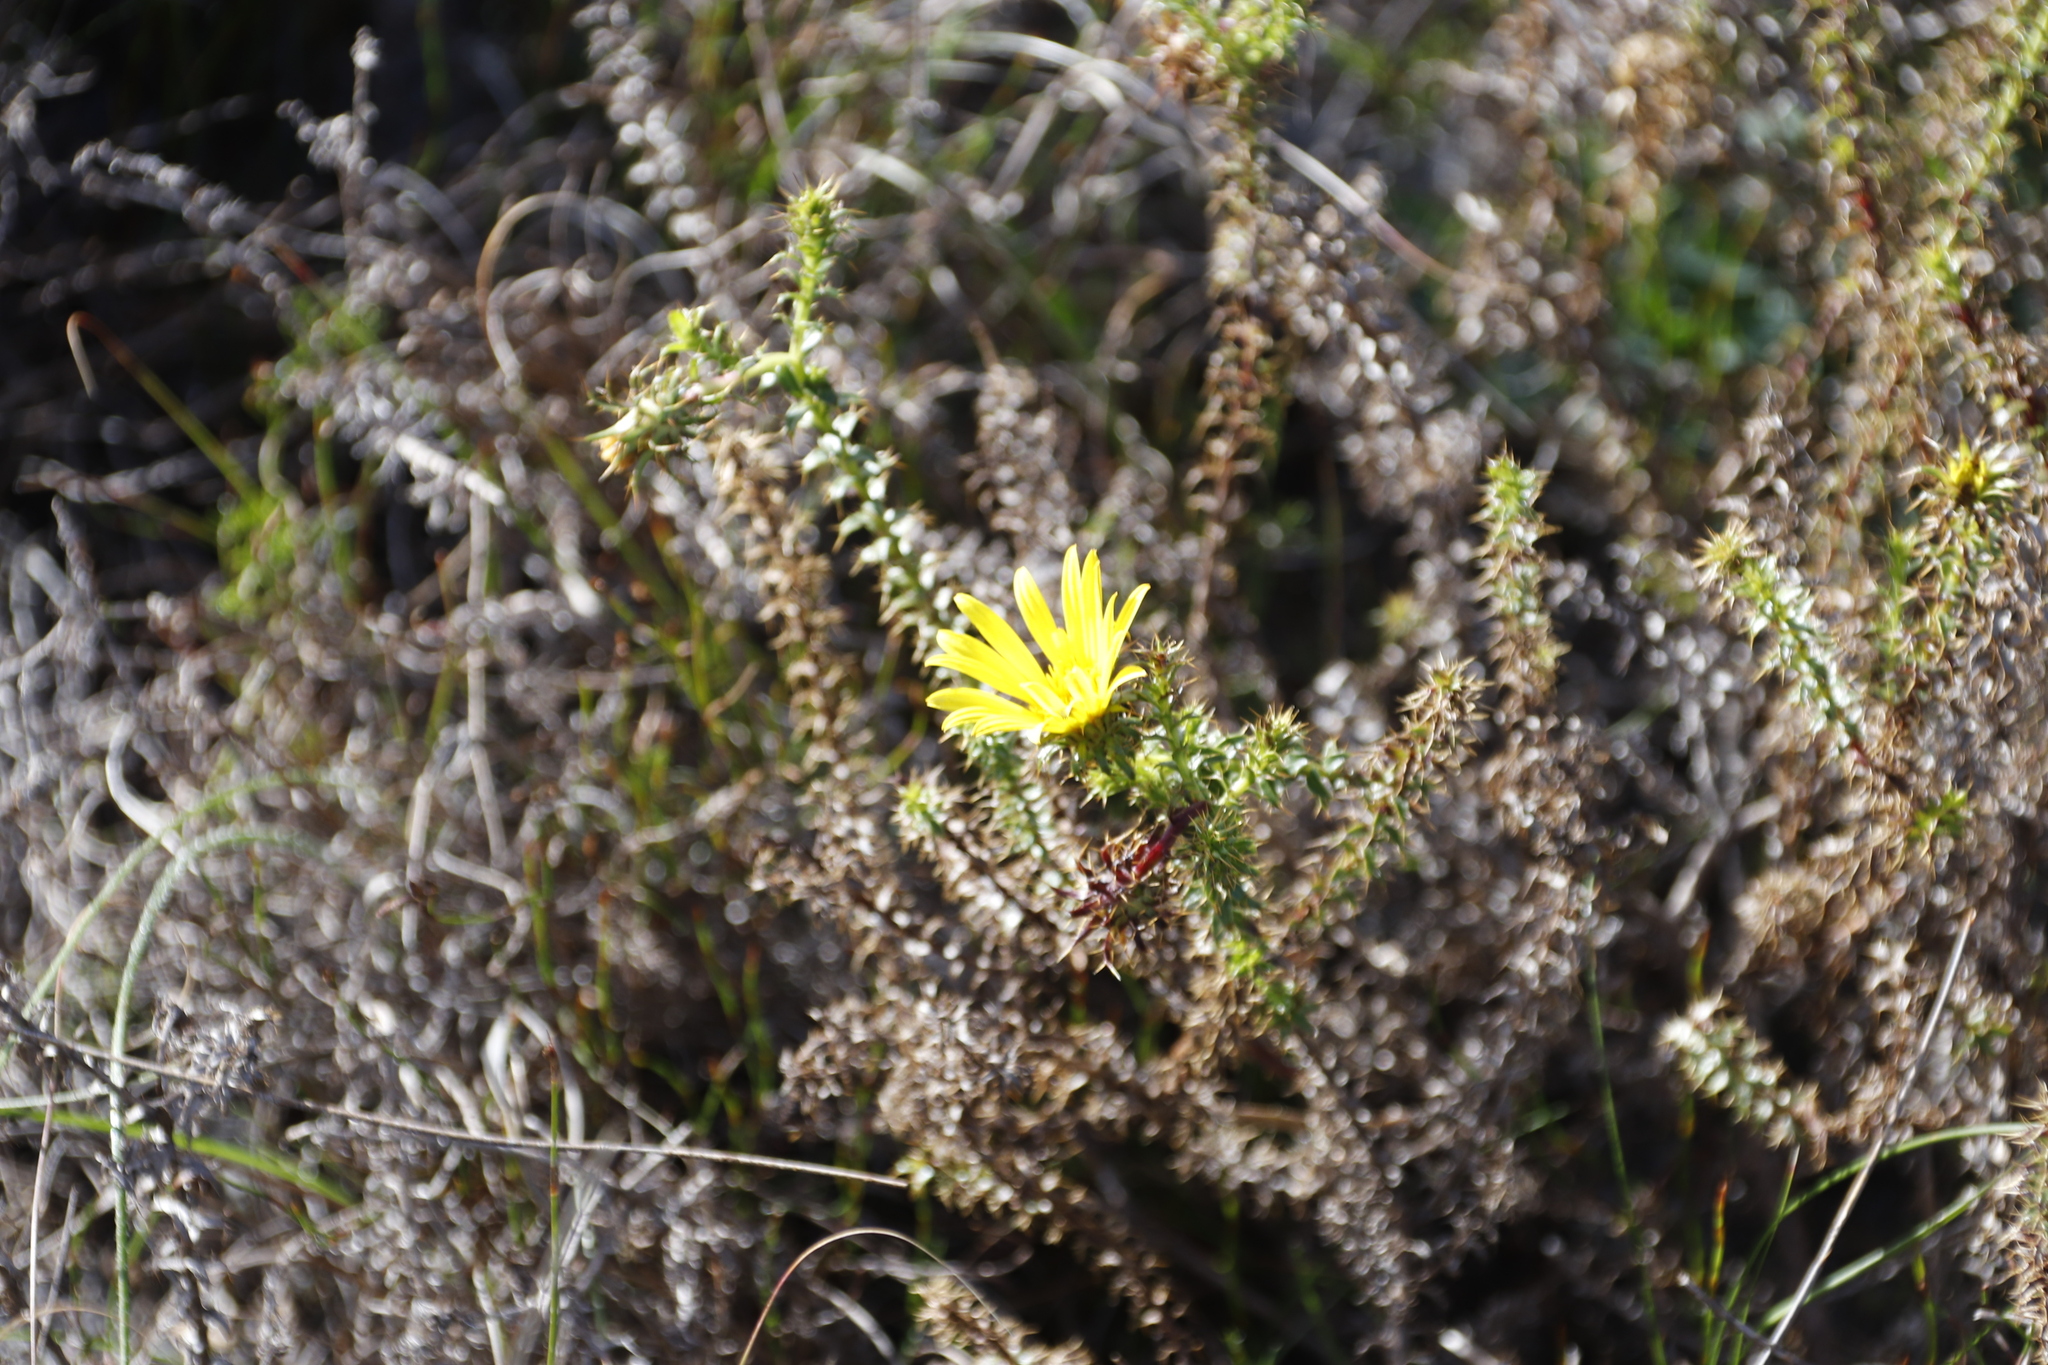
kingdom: Plantae
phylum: Tracheophyta
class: Magnoliopsida
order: Asterales
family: Asteraceae
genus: Cullumia
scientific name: Cullumia setosa
